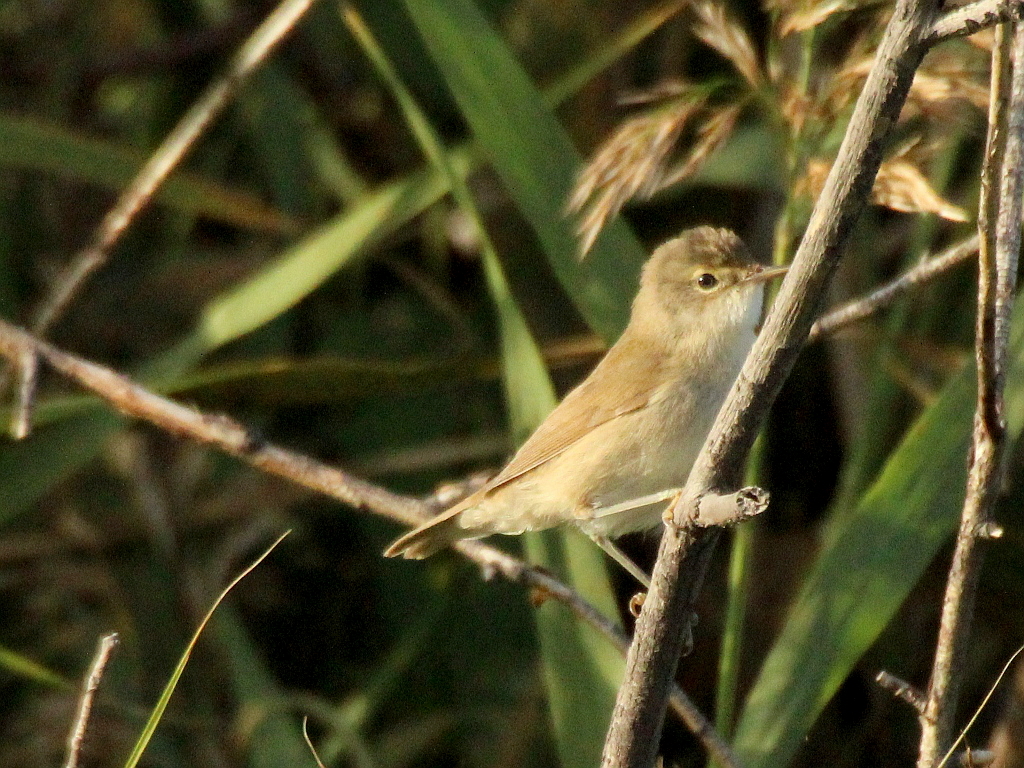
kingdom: Animalia
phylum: Chordata
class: Aves
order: Passeriformes
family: Acrocephalidae
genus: Iduna
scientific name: Iduna caligata
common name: Booted warbler
